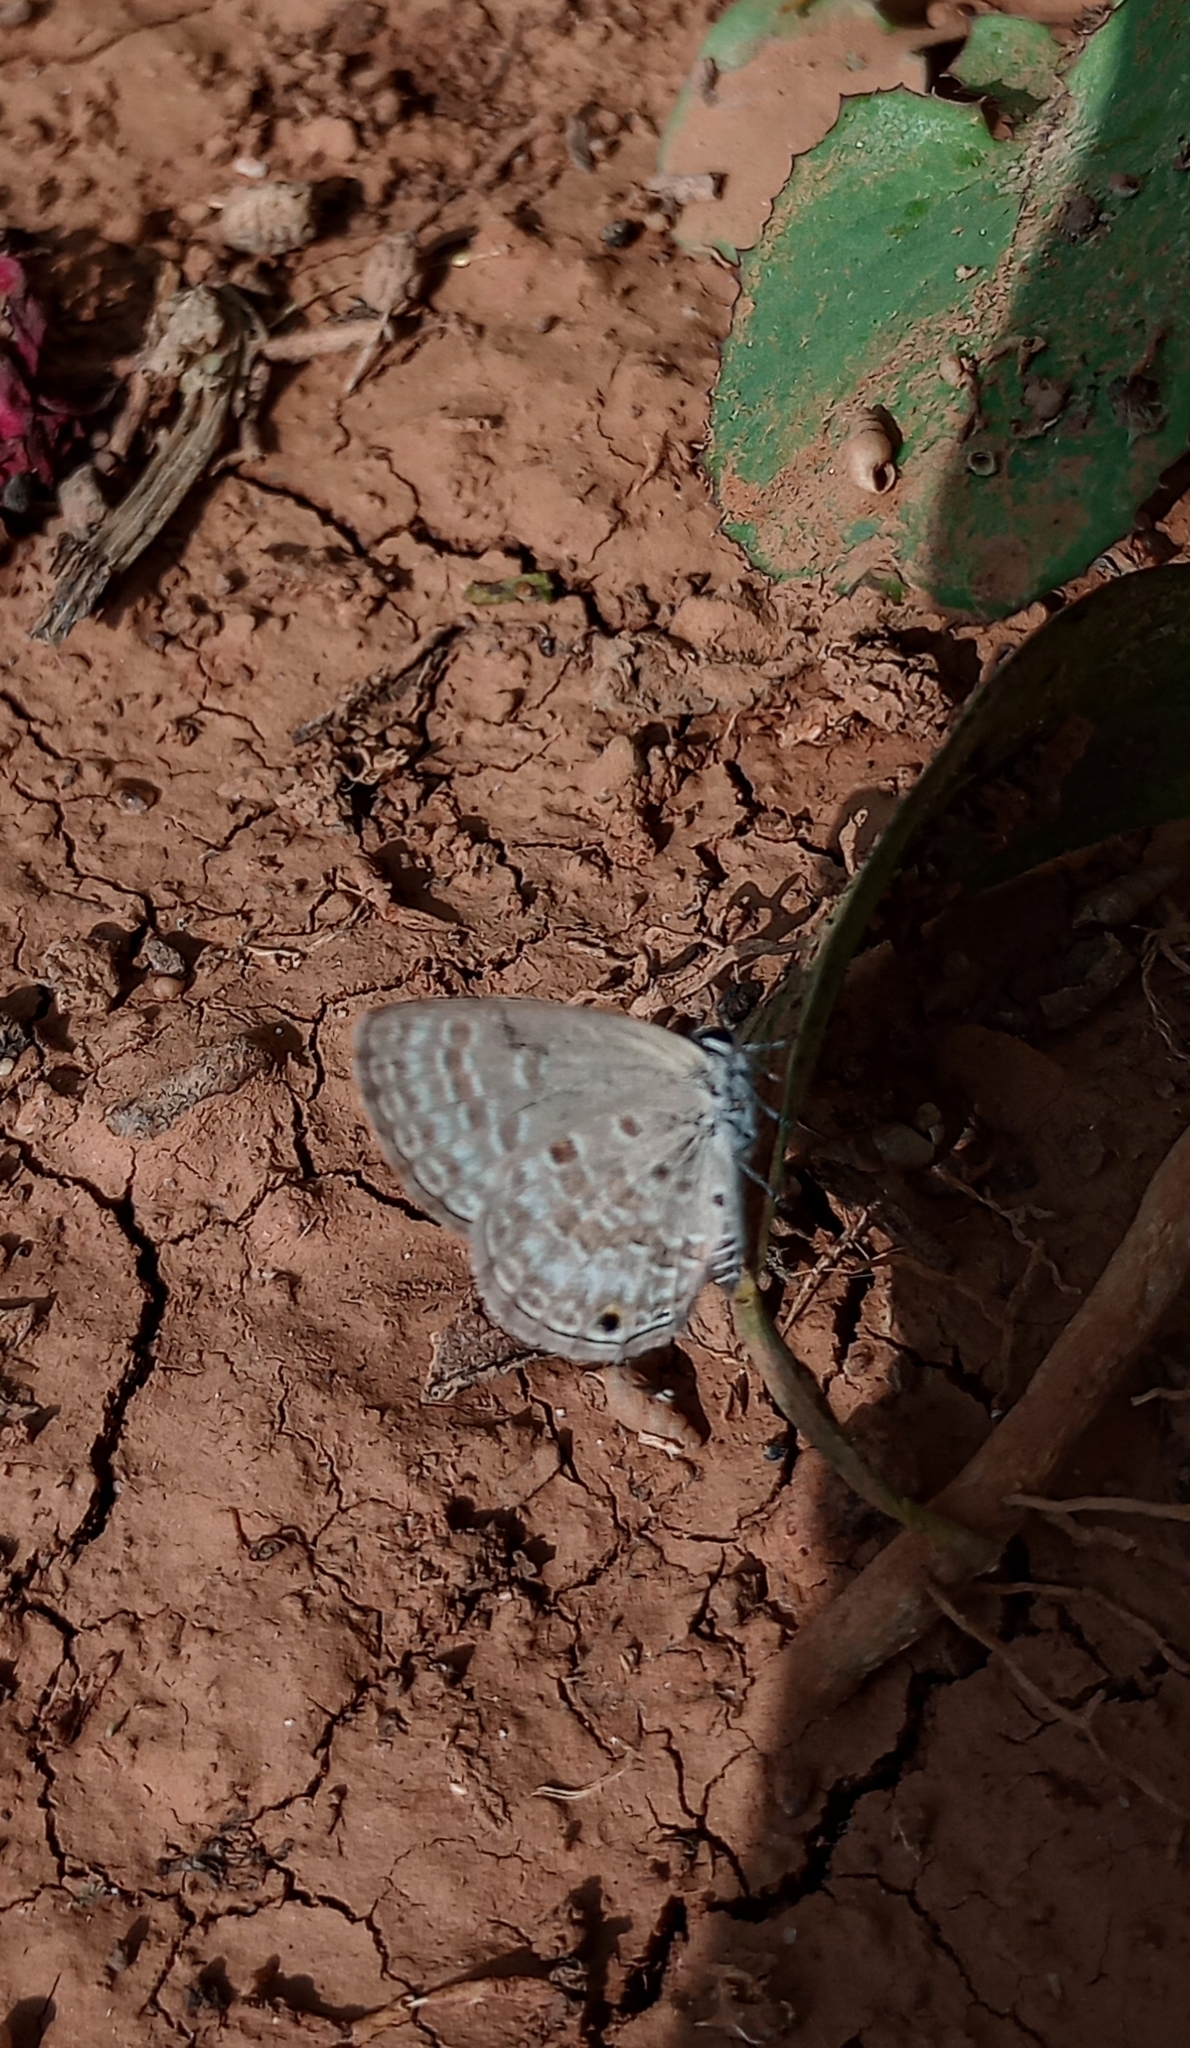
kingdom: Animalia
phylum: Arthropoda
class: Insecta
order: Lepidoptera
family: Lycaenidae
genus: Luthrodes
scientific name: Luthrodes pandava
